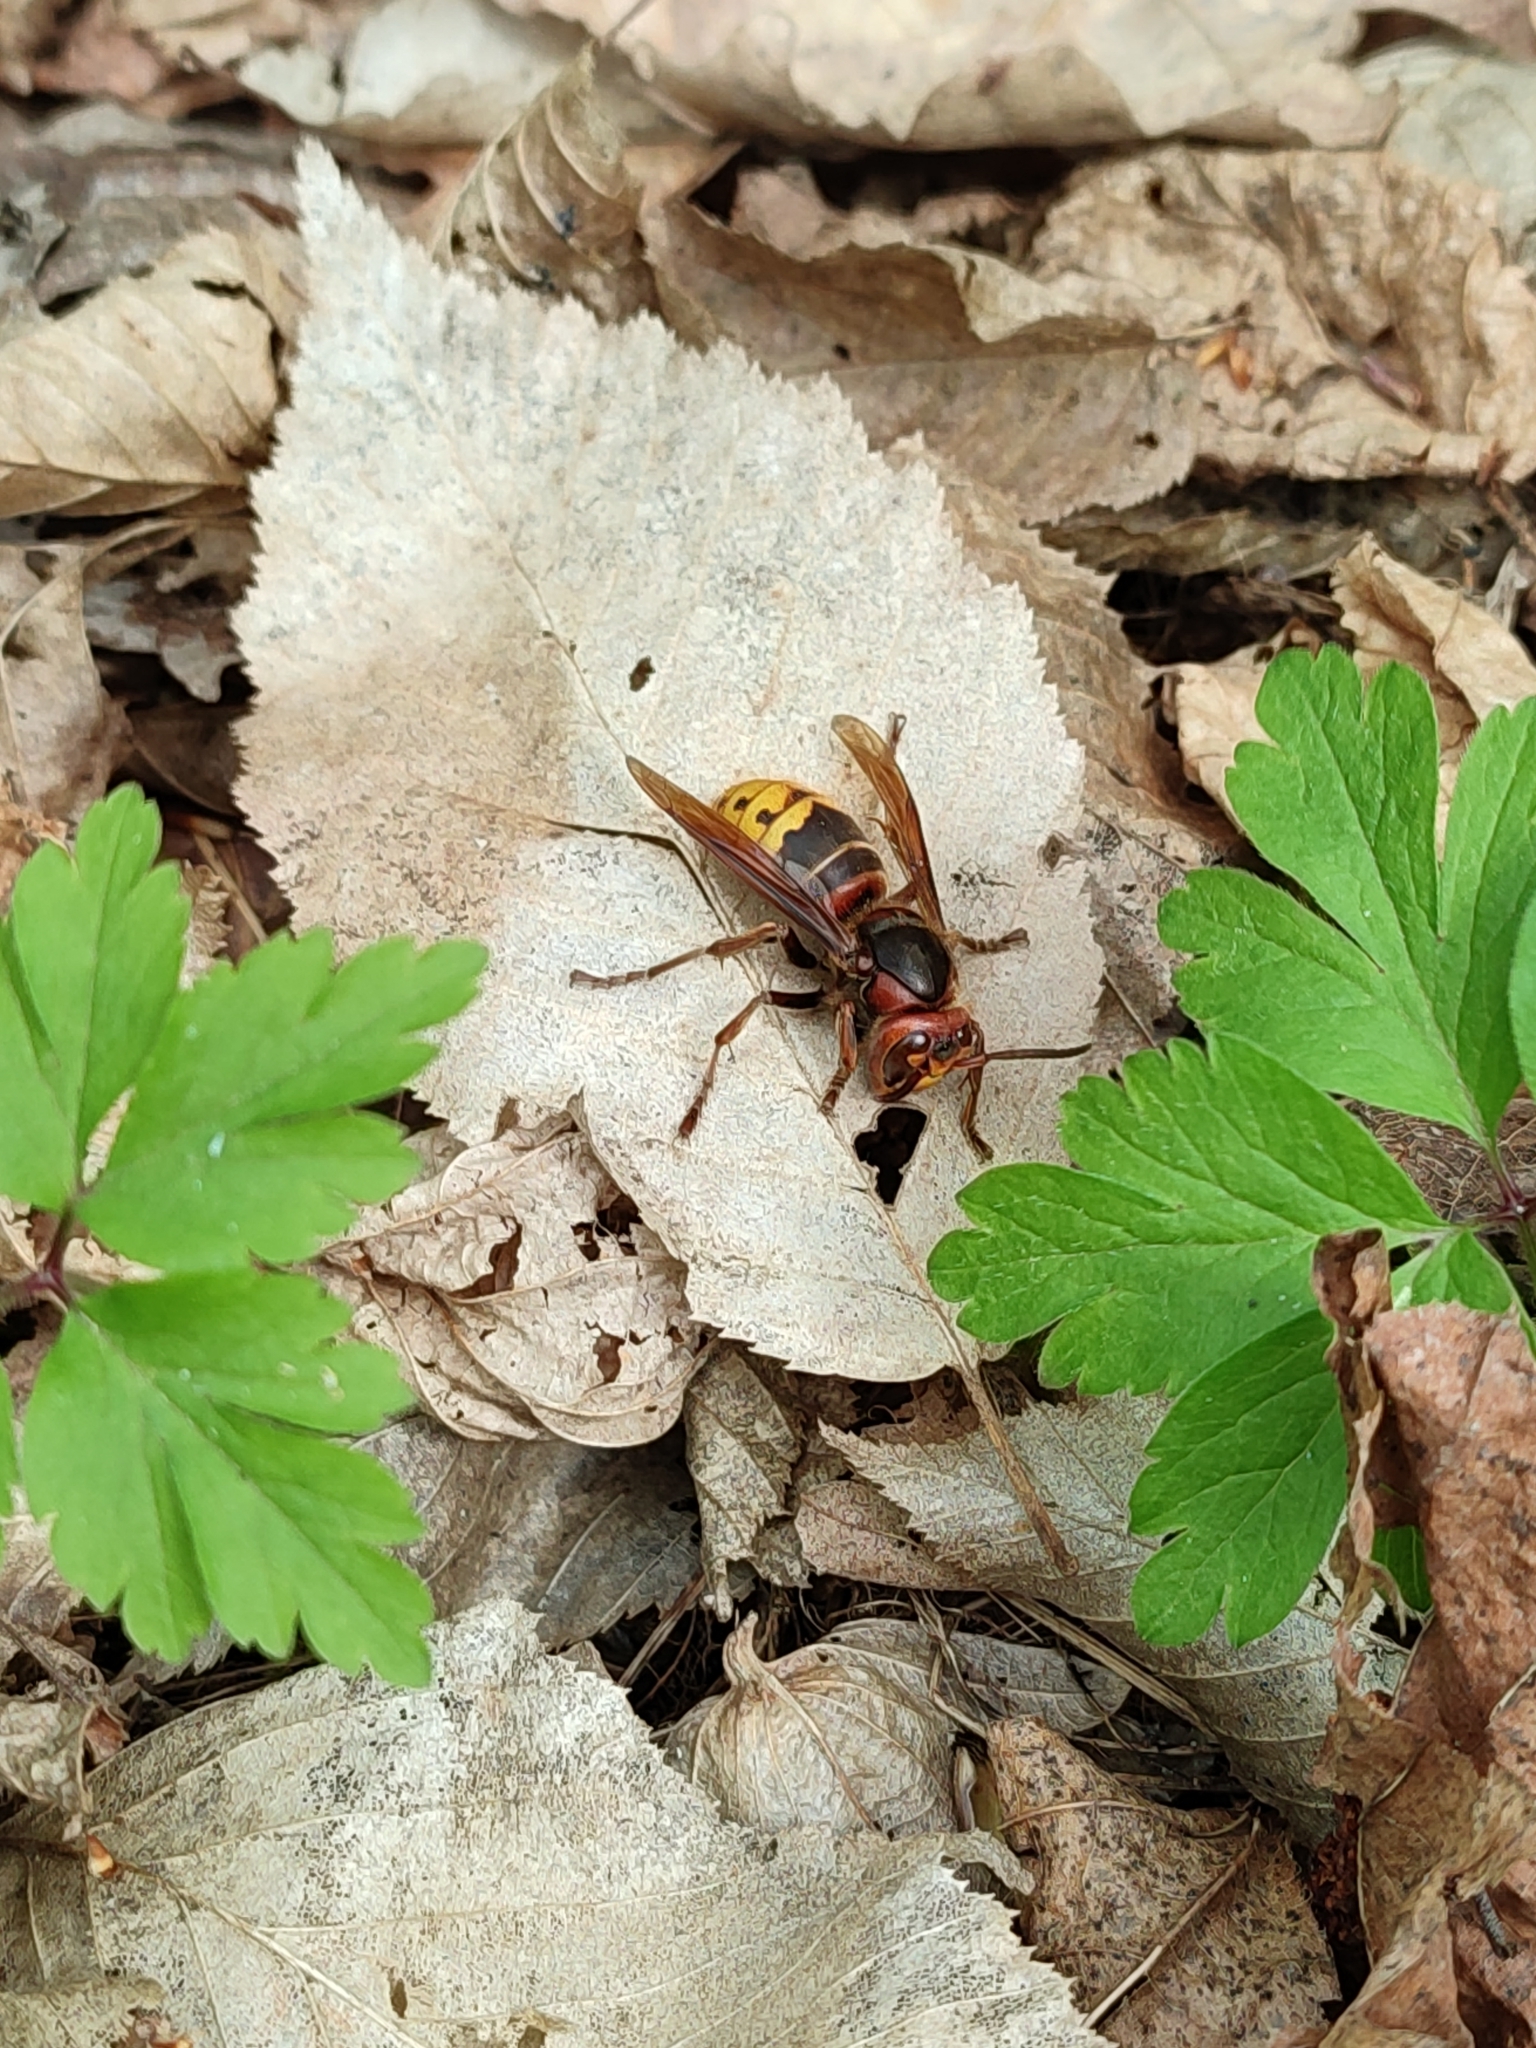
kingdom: Animalia
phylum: Arthropoda
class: Insecta
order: Hymenoptera
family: Vespidae
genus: Vespa
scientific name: Vespa crabro
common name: Hornet
